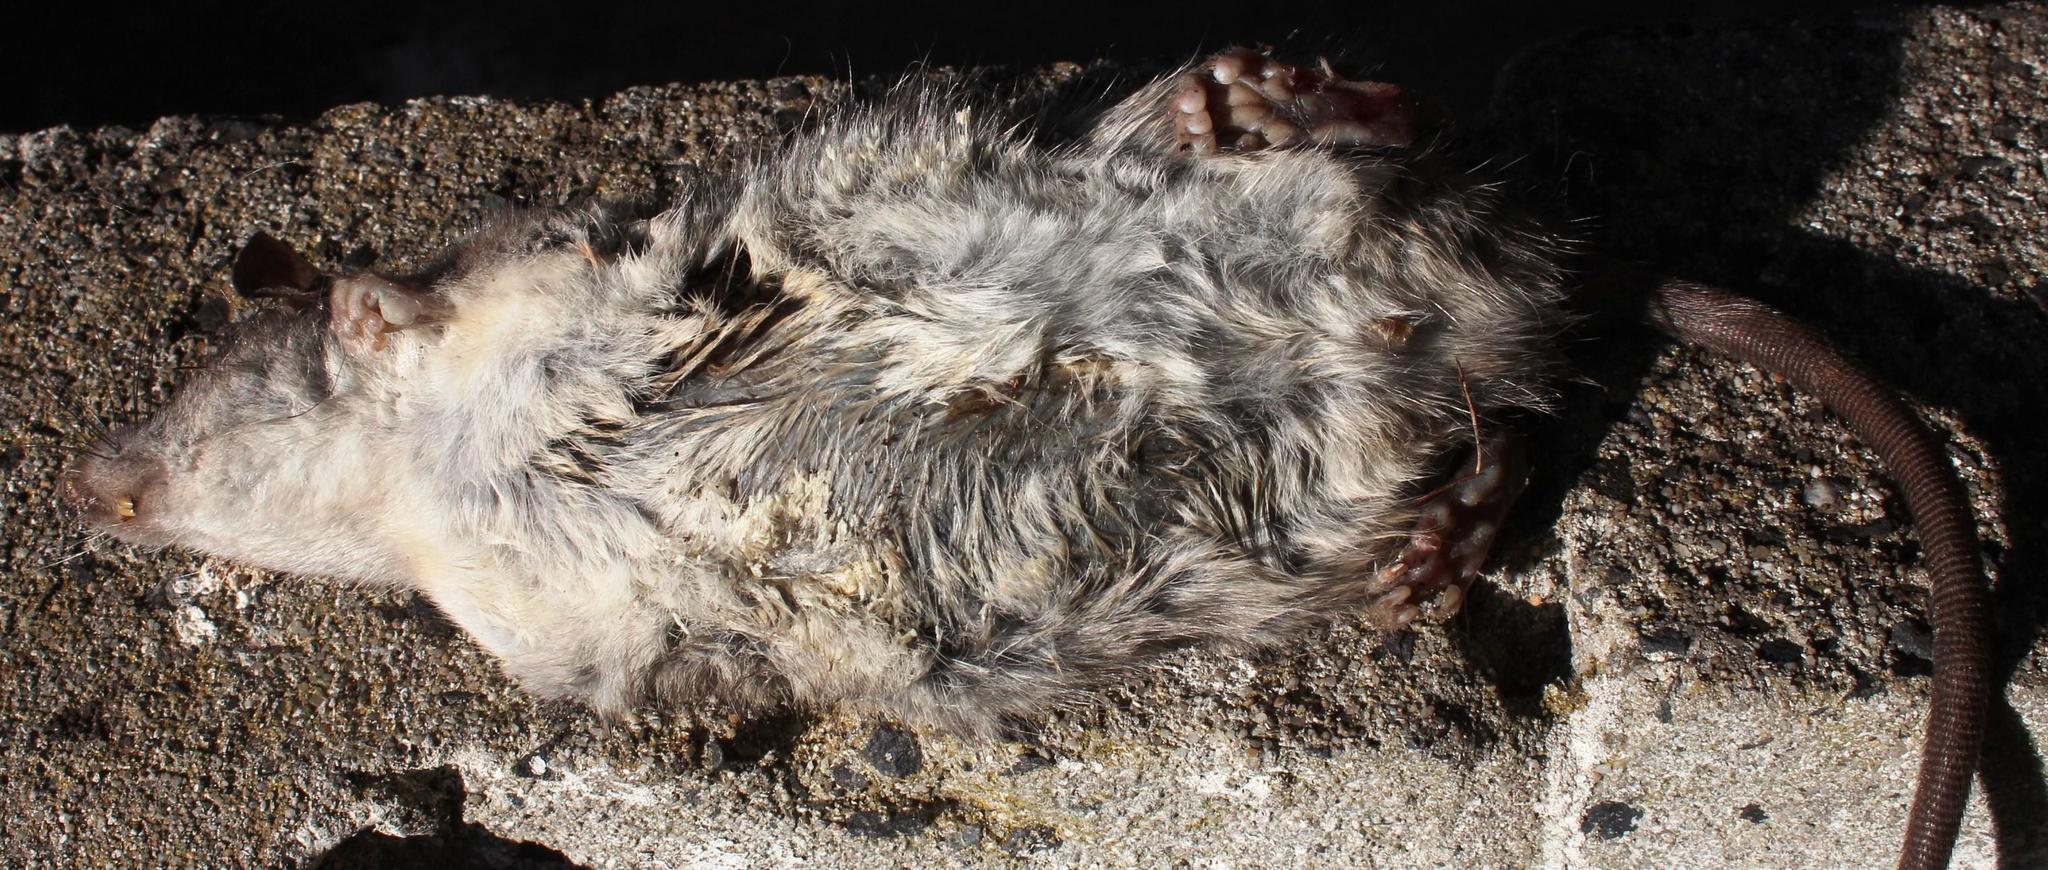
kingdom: Animalia
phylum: Chordata
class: Mammalia
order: Rodentia
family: Muridae
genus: Rattus
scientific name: Rattus rattus
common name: Black rat
